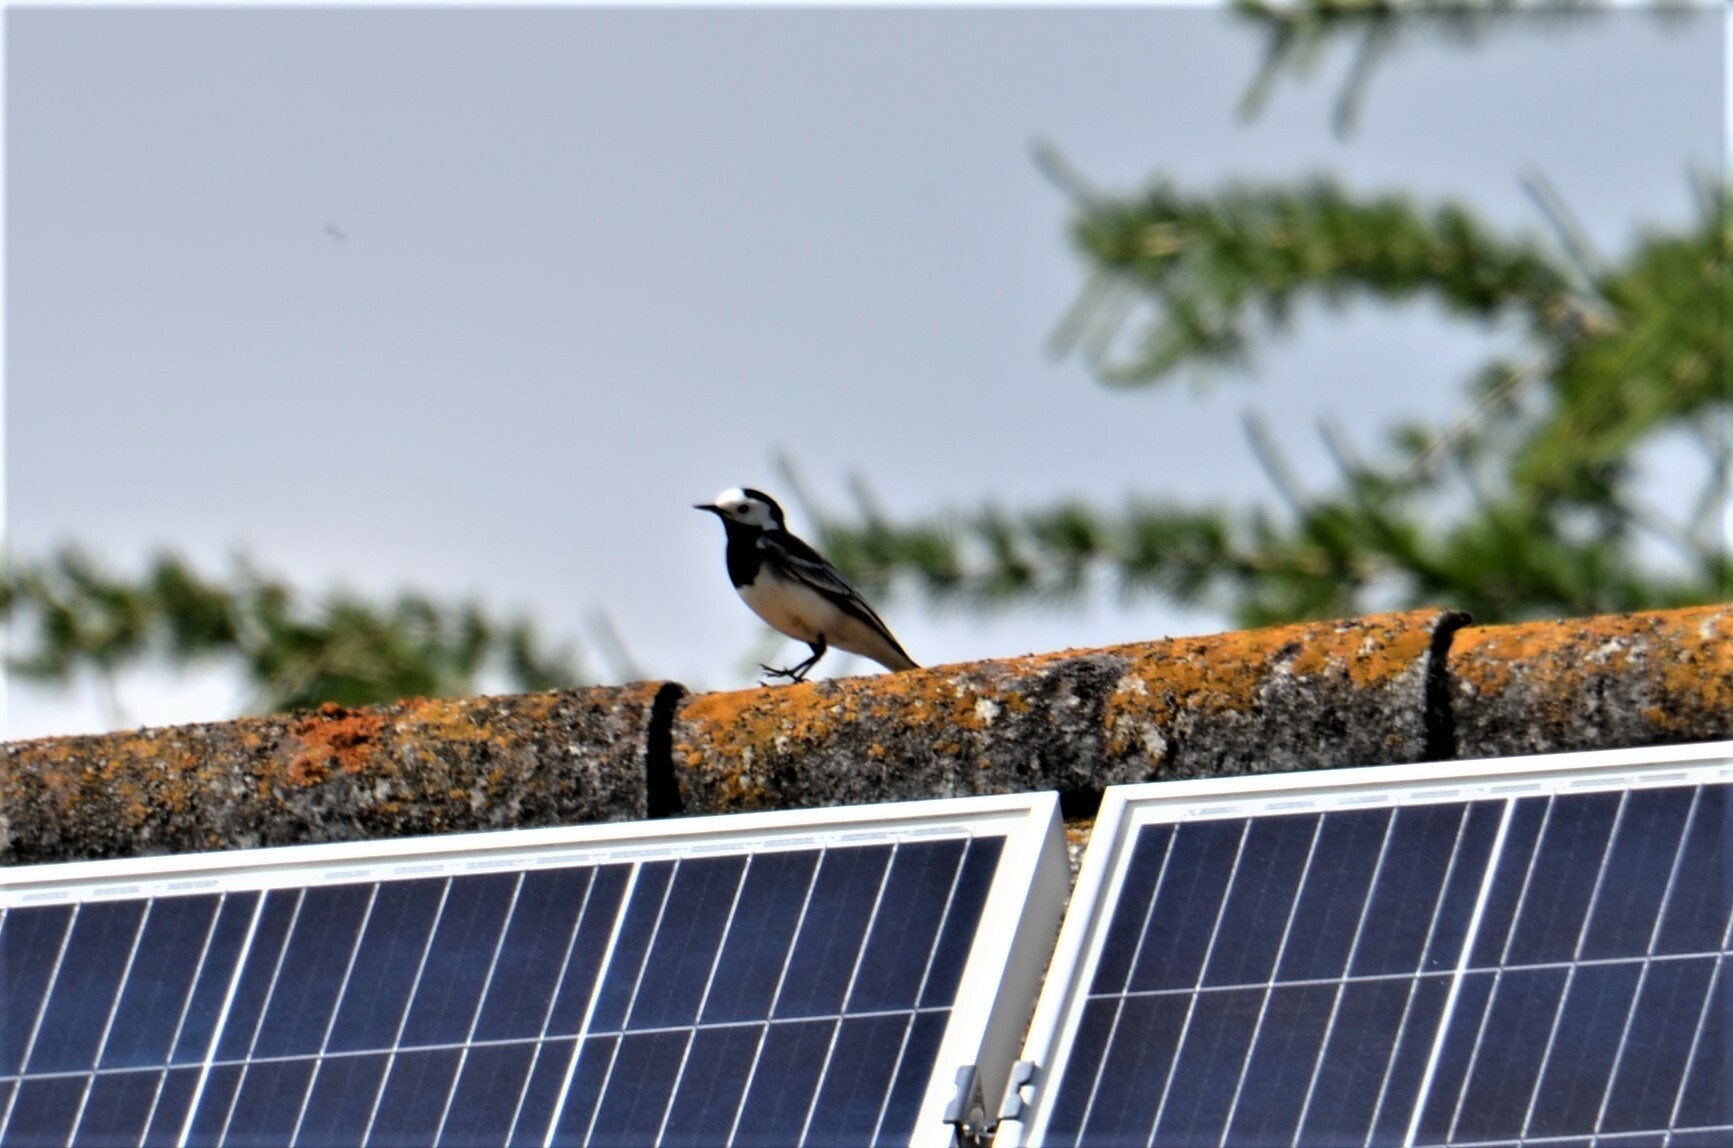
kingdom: Animalia
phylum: Chordata
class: Aves
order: Passeriformes
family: Motacillidae
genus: Motacilla
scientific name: Motacilla alba
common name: White wagtail
